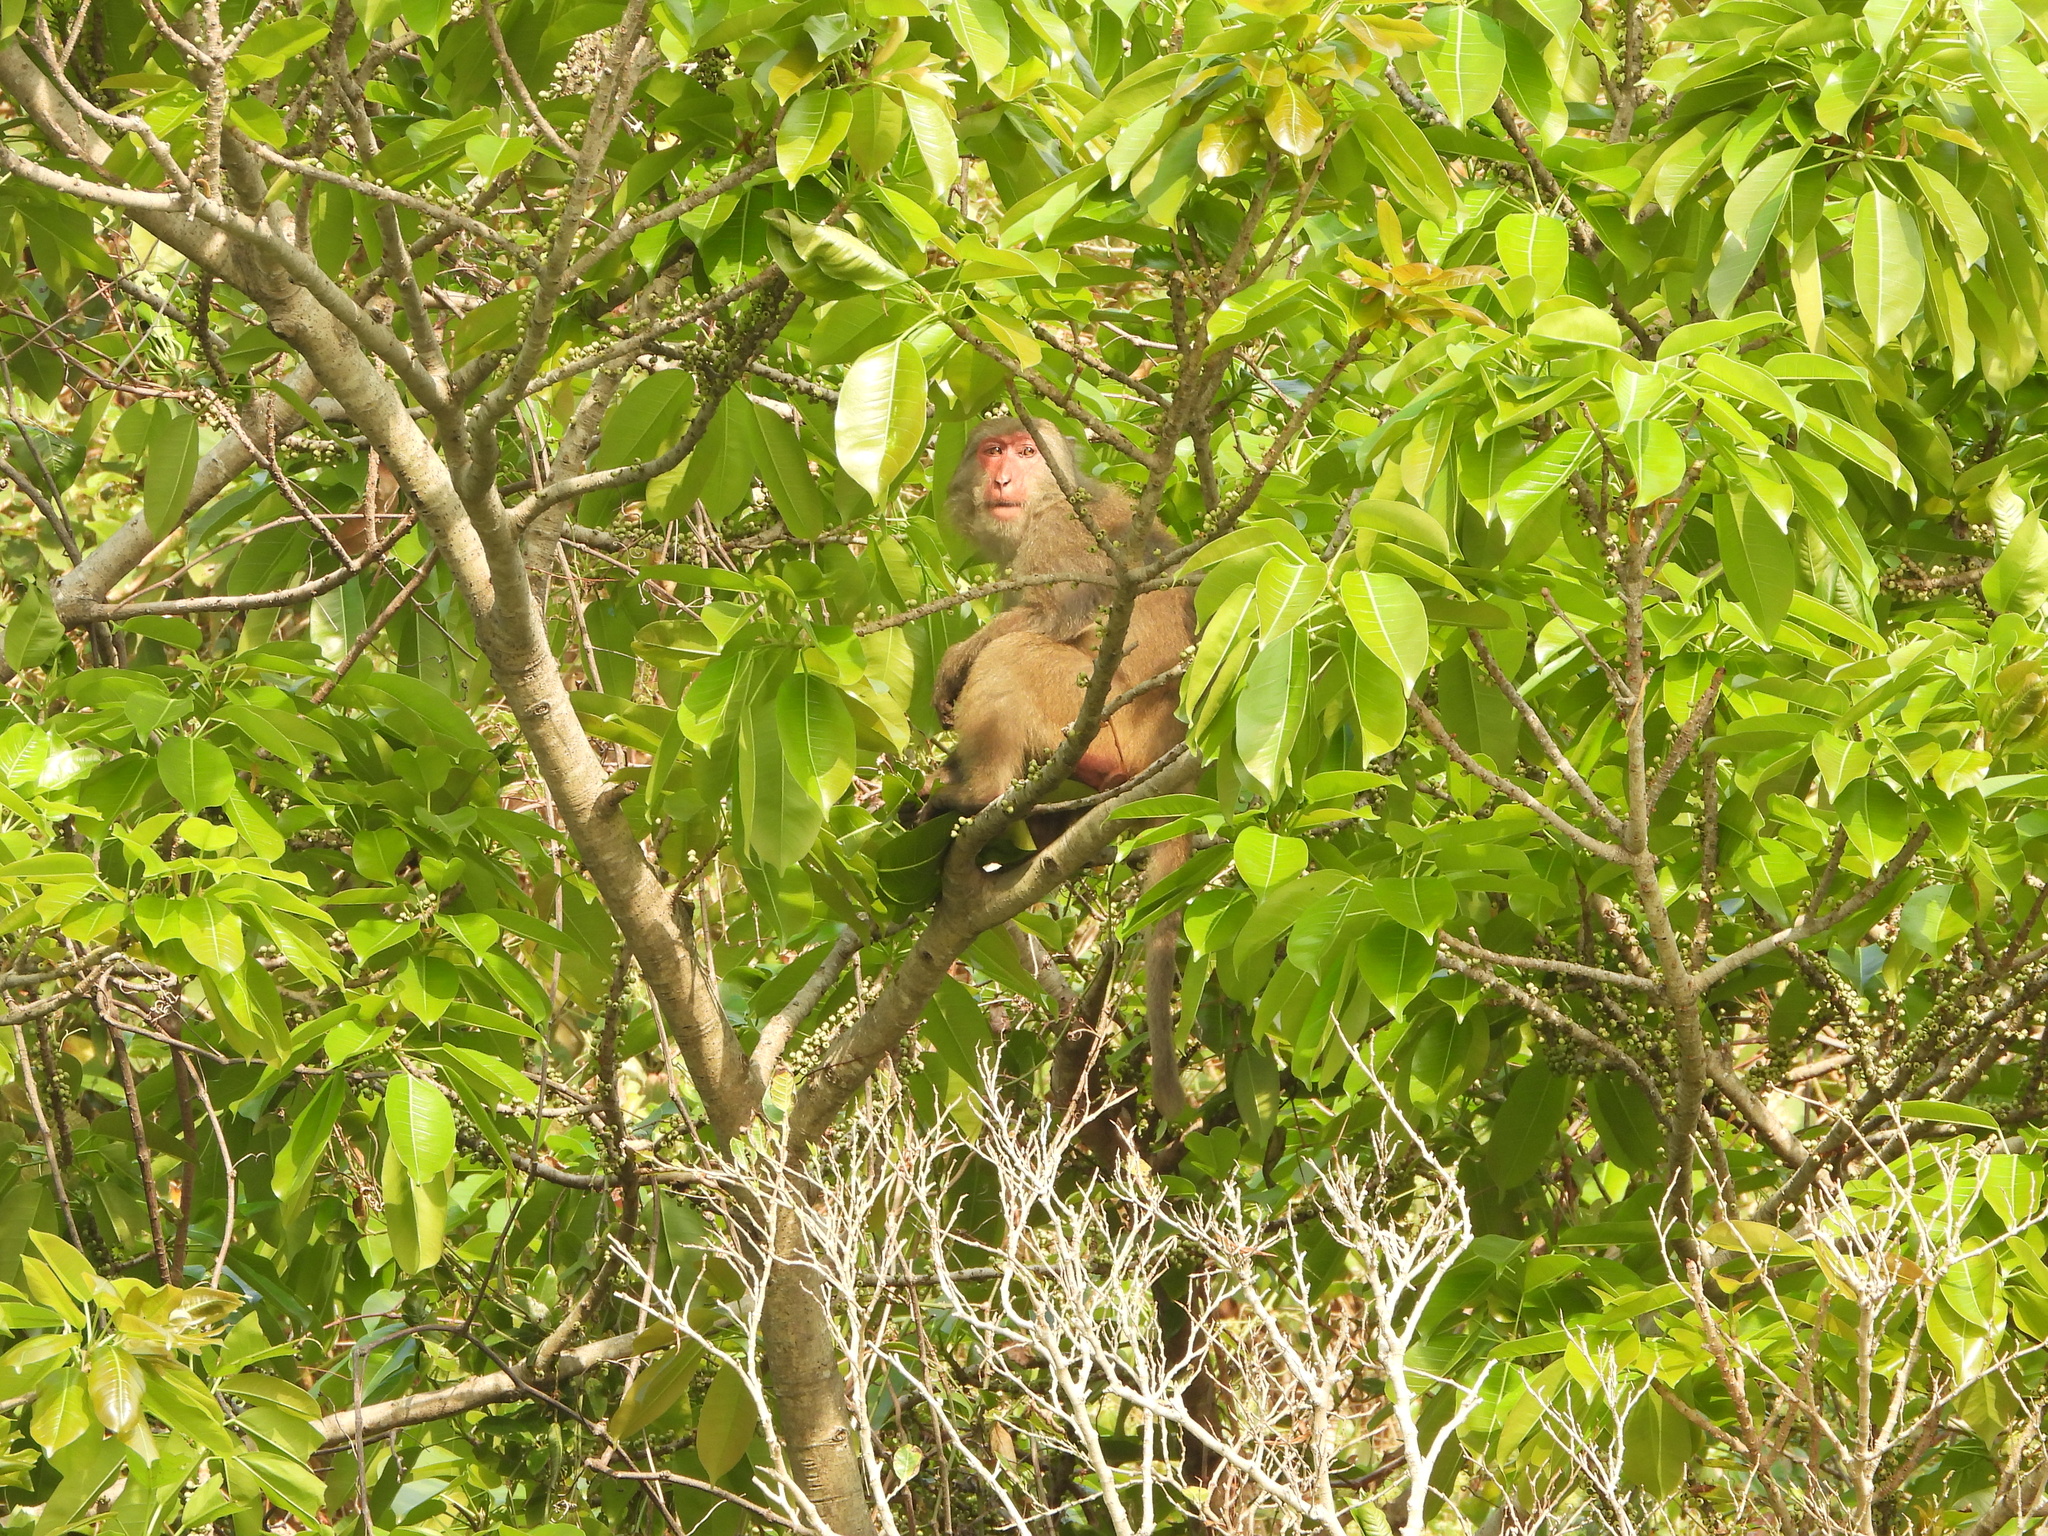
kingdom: Animalia
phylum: Chordata
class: Mammalia
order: Primates
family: Cercopithecidae
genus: Macaca
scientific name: Macaca cyclopis
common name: Formosan rock macaque
